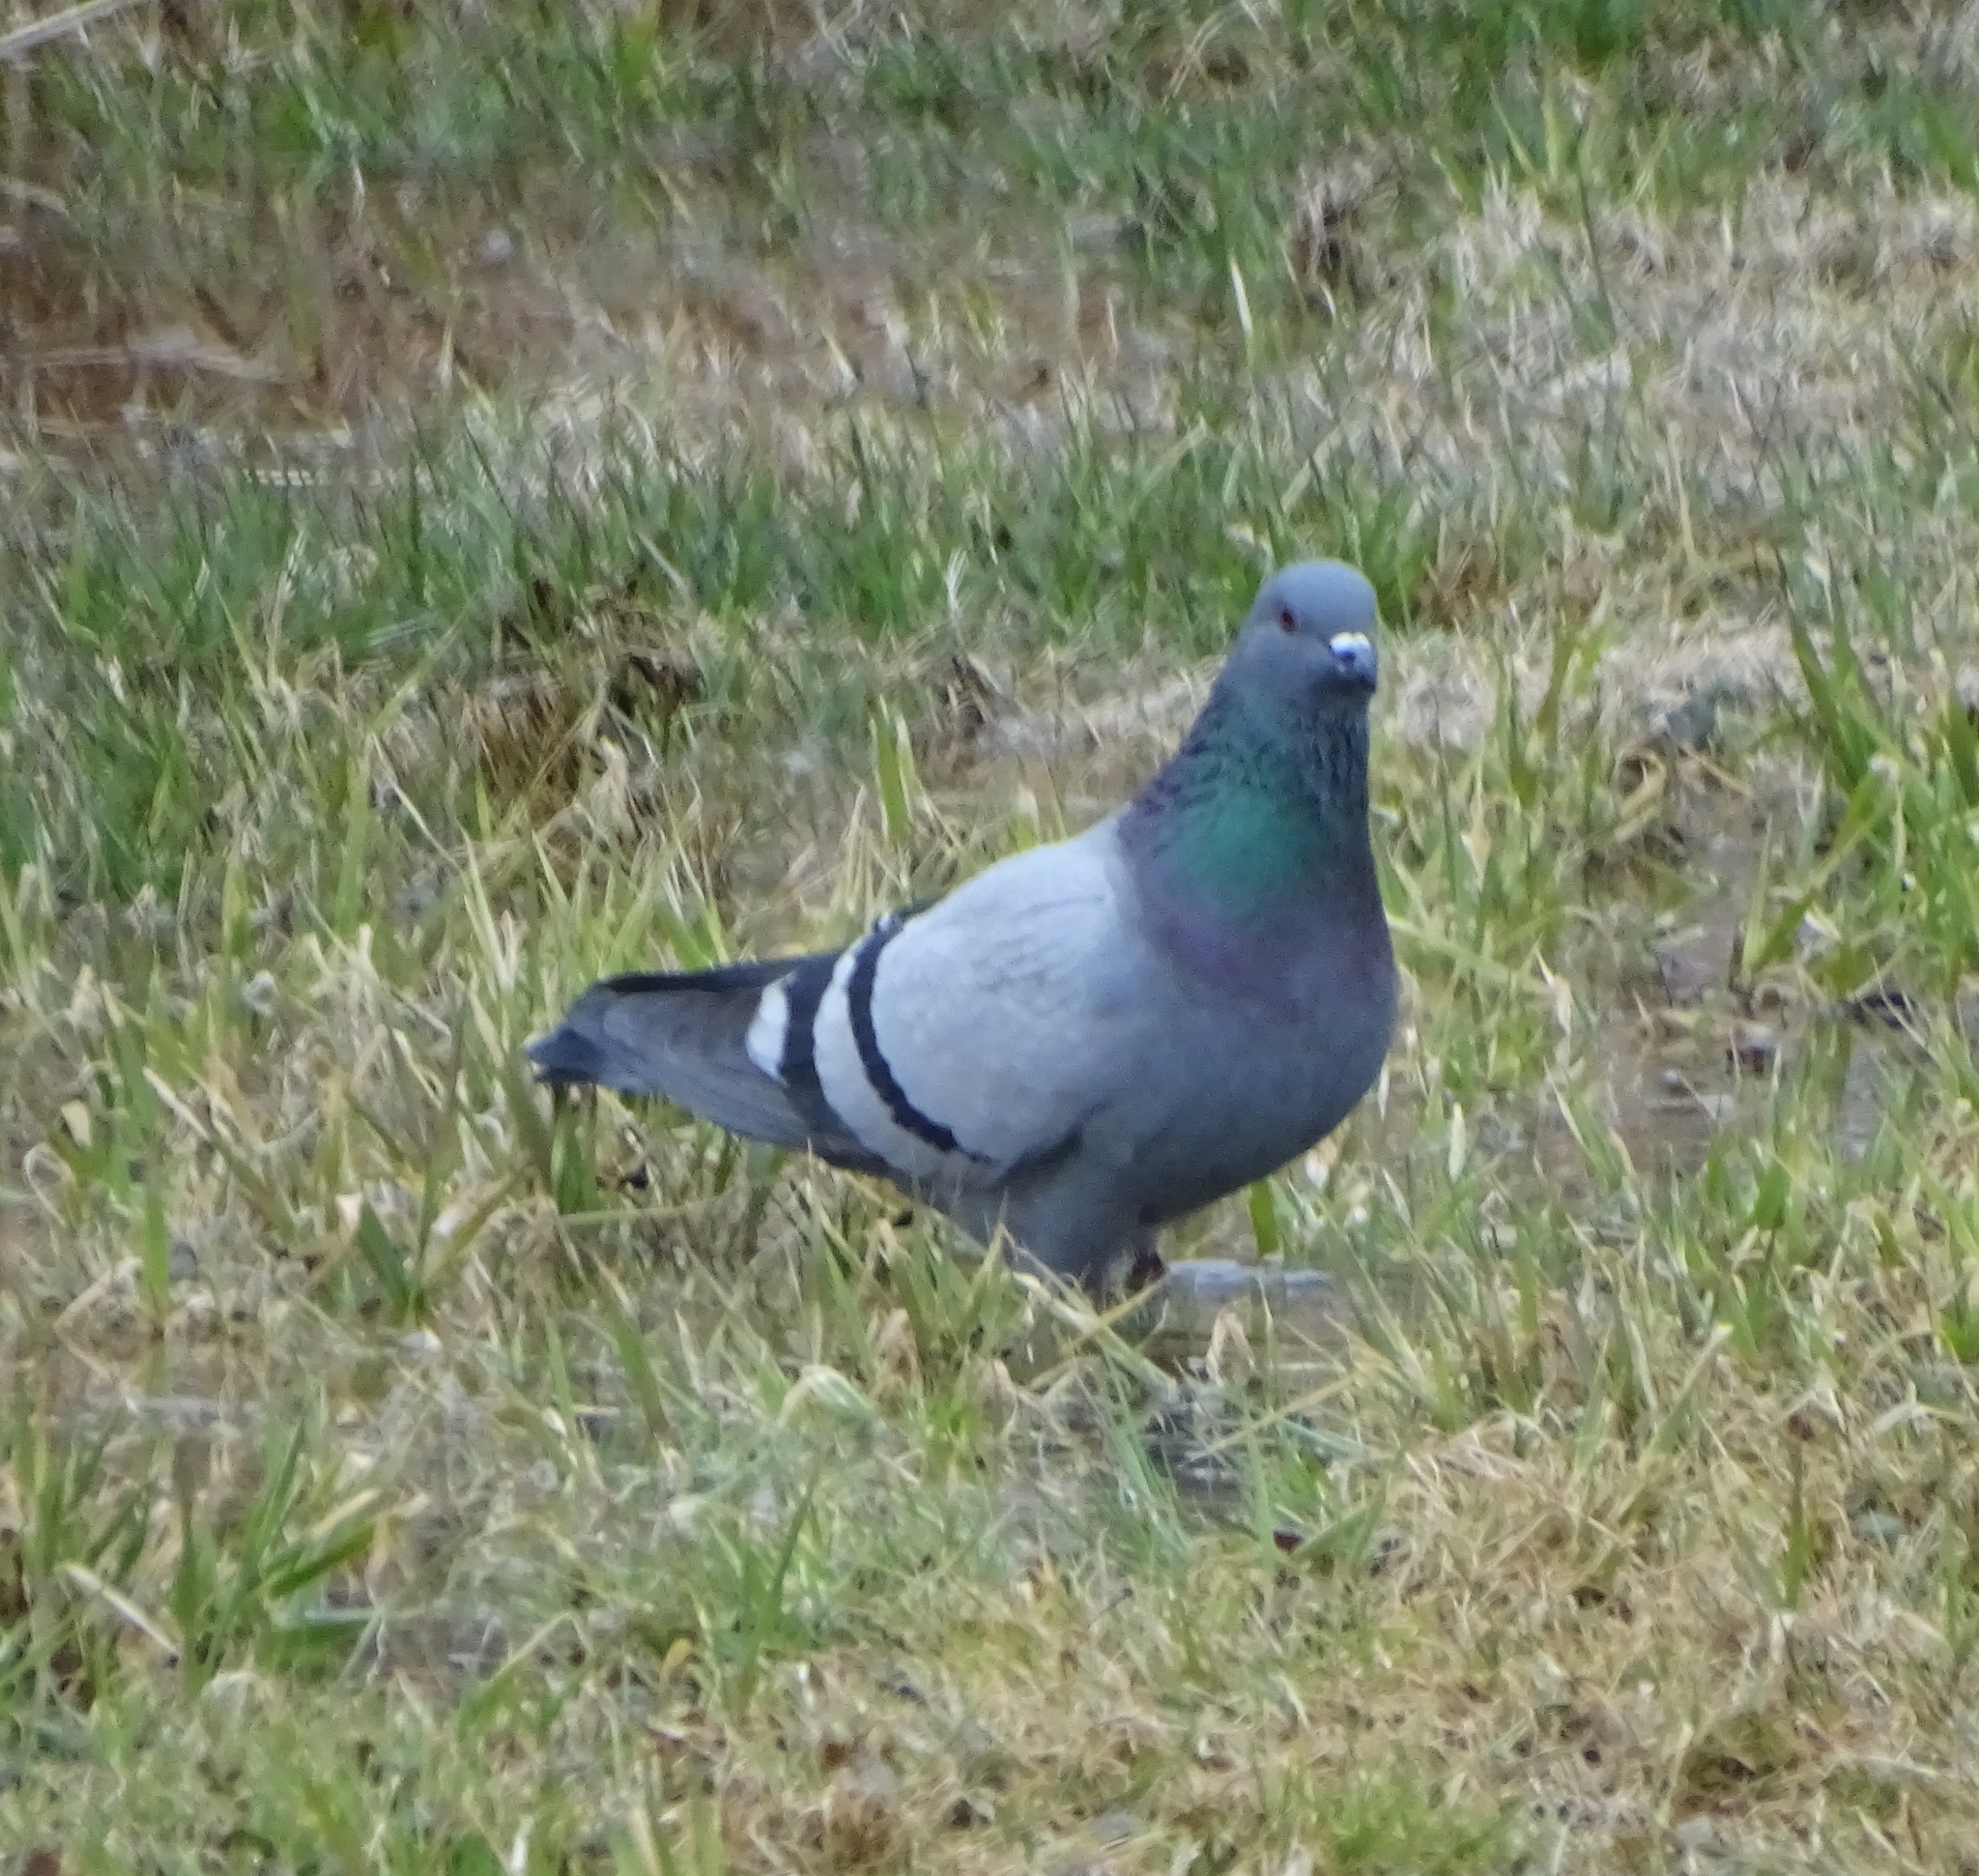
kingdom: Animalia
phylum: Chordata
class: Aves
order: Columbiformes
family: Columbidae
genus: Columba
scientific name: Columba livia
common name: Rock pigeon
